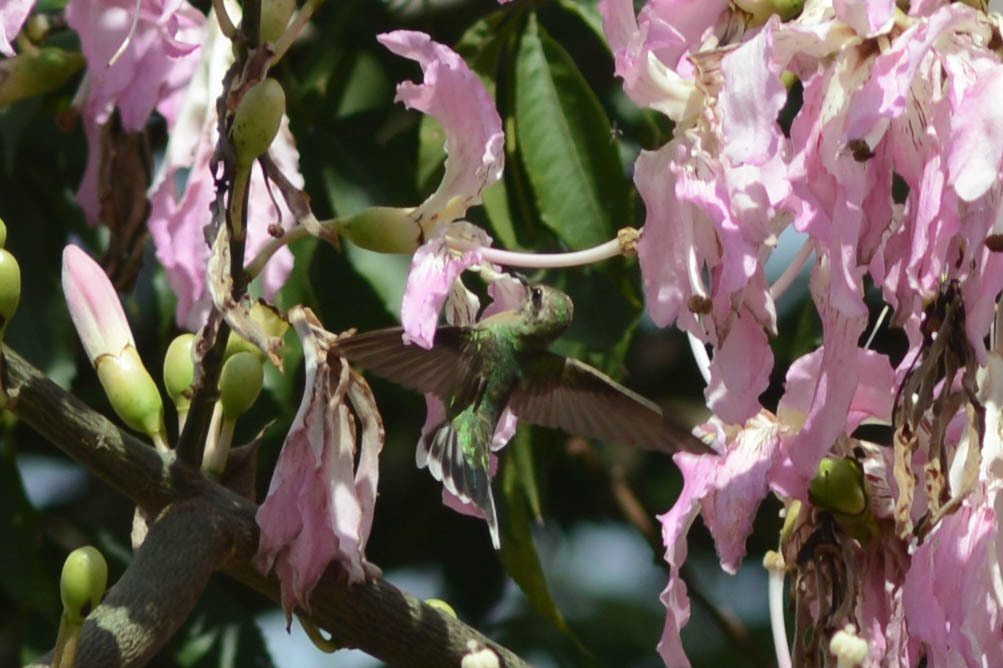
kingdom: Animalia
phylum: Chordata
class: Aves
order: Apodiformes
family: Trochilidae
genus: Polytmus
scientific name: Polytmus guainumbi
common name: White-tailed goldenthroat
